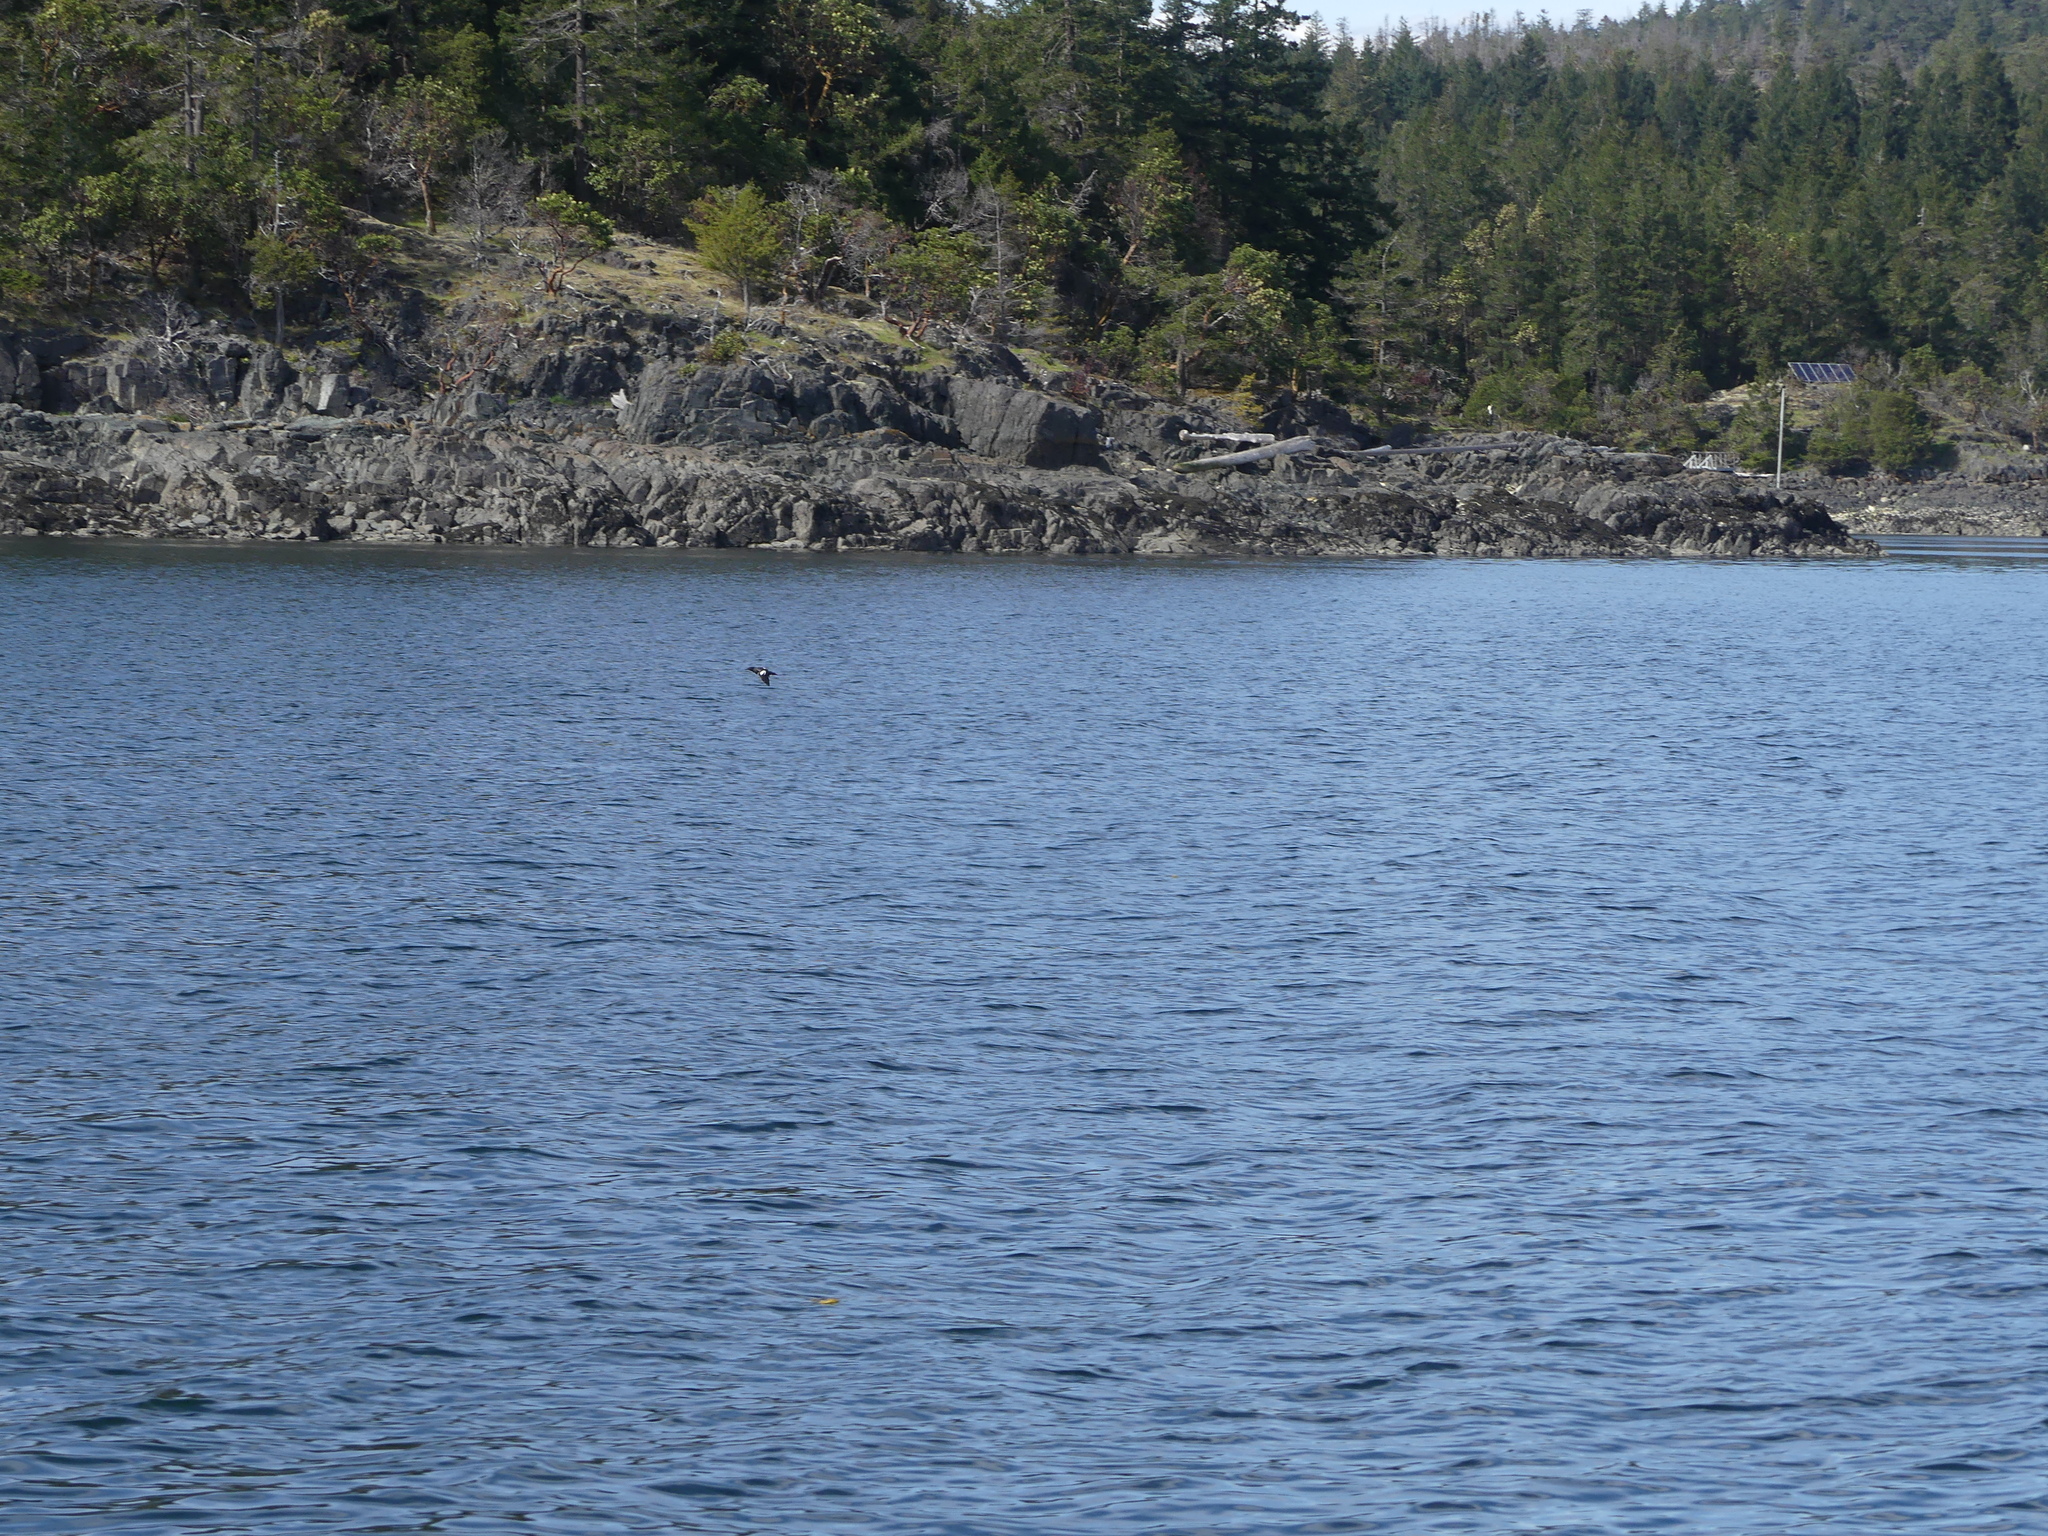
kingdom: Animalia
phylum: Chordata
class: Aves
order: Charadriiformes
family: Alcidae
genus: Cepphus
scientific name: Cepphus columba
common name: Pigeon guillemot
